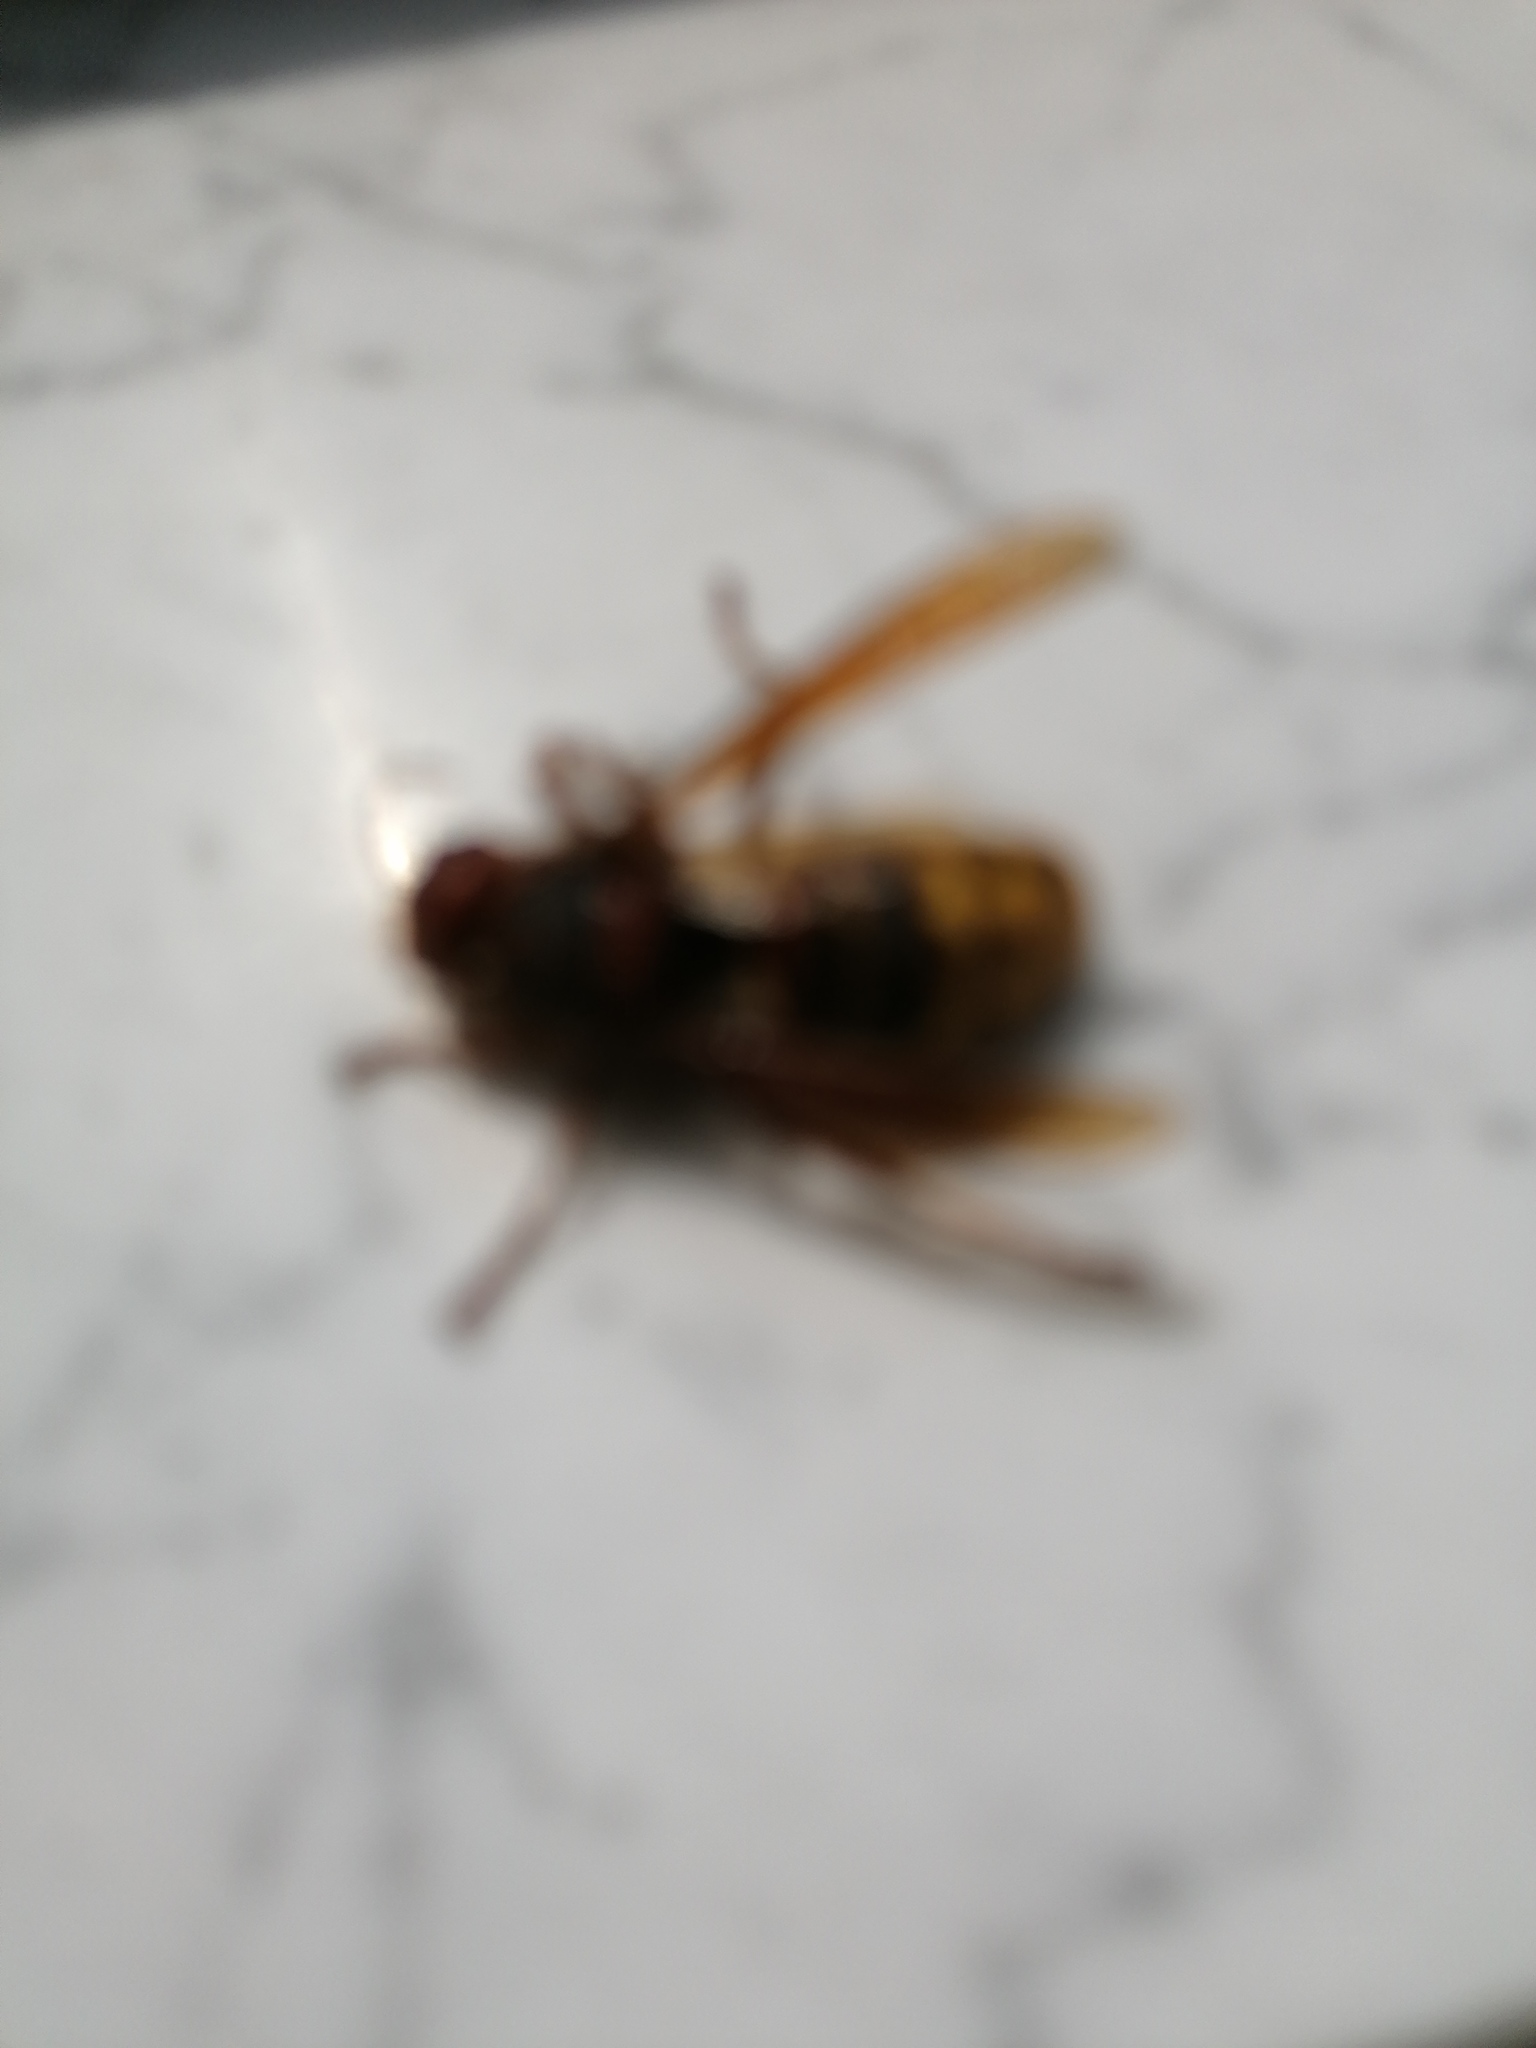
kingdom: Animalia
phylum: Arthropoda
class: Insecta
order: Hymenoptera
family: Vespidae
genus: Vespa
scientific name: Vespa crabro
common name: Hornet
